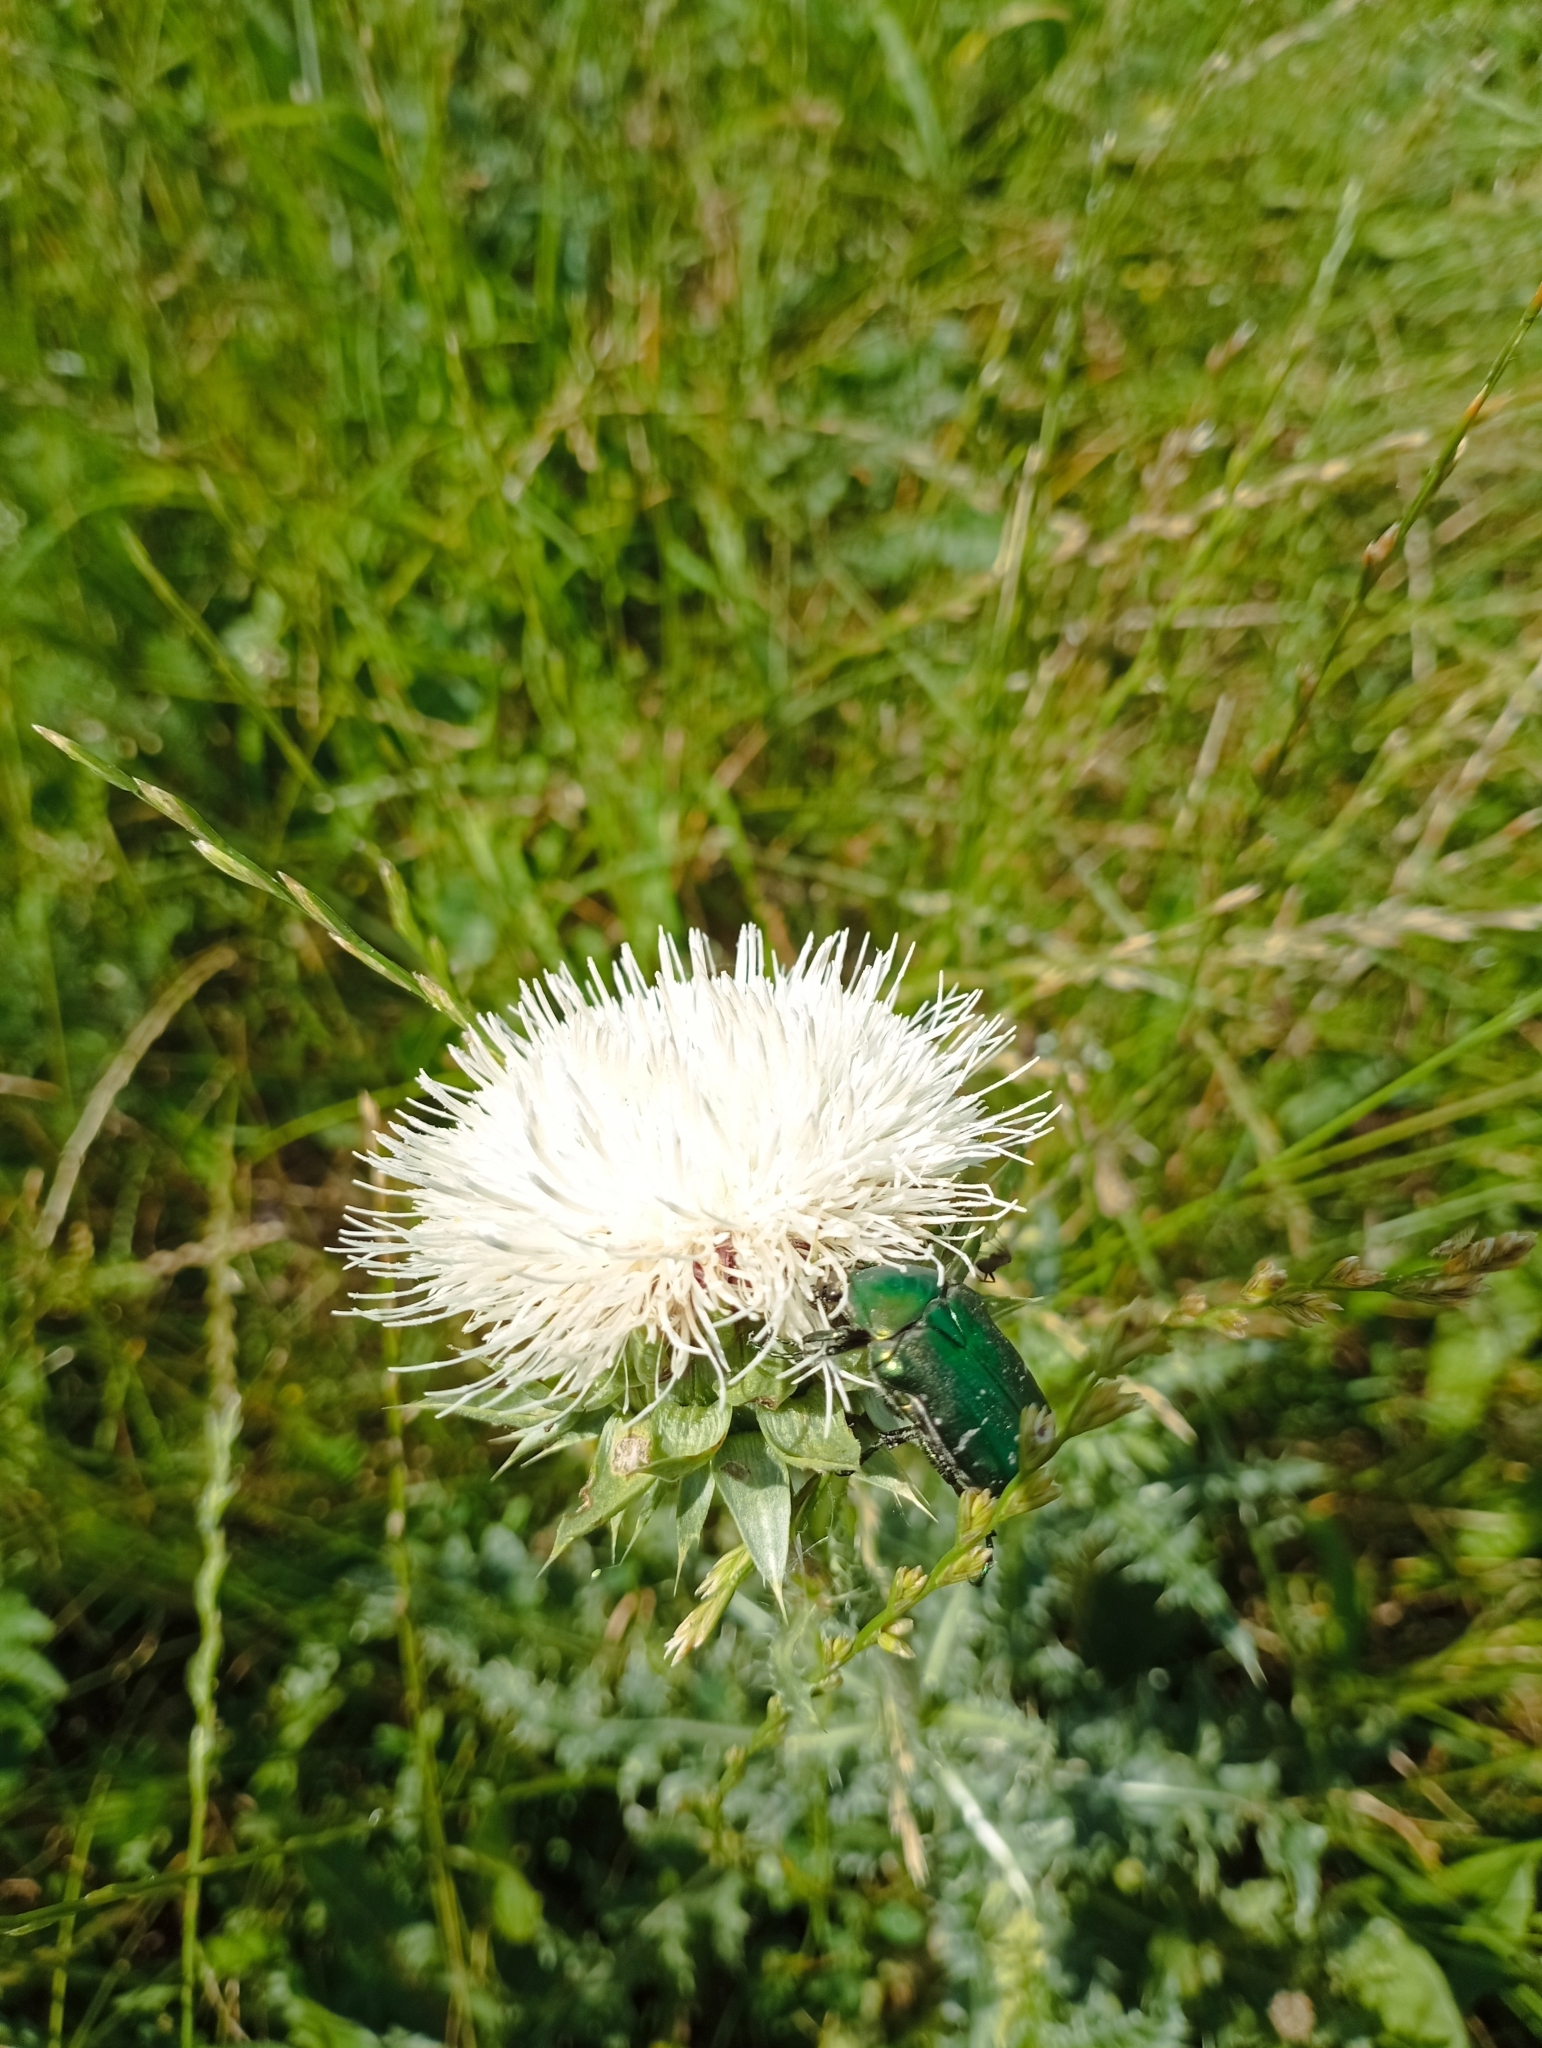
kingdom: Animalia
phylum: Arthropoda
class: Insecta
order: Coleoptera
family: Scarabaeidae
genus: Cetonia
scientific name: Cetonia aurata
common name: Rose chafer
